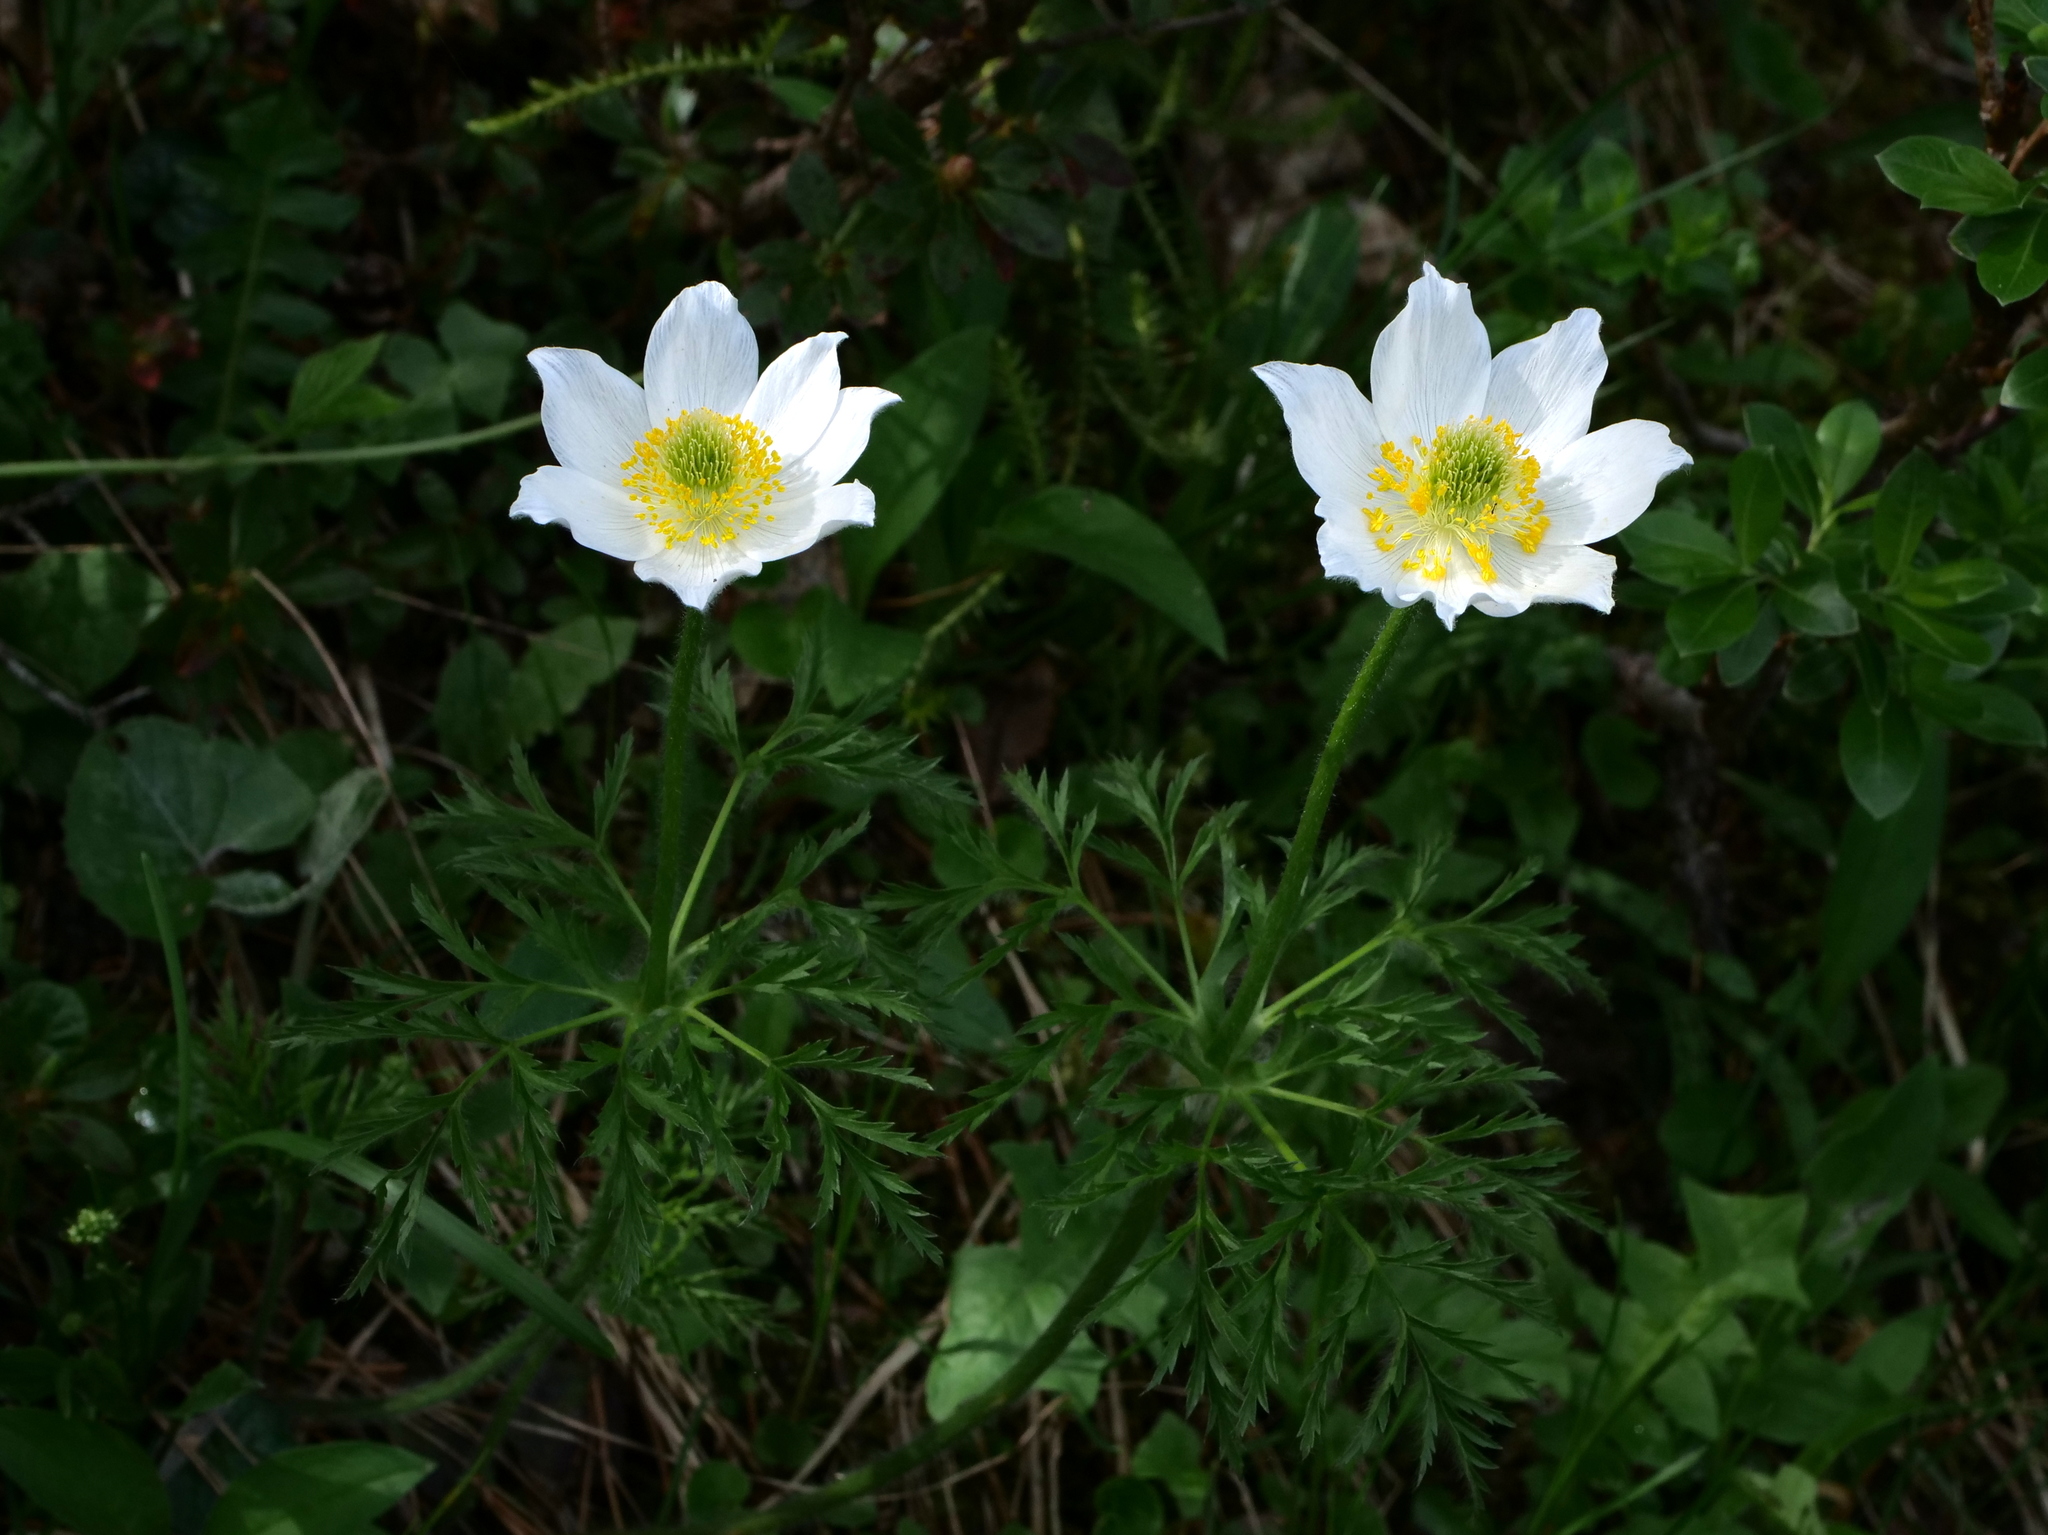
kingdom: Plantae
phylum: Tracheophyta
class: Magnoliopsida
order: Ranunculales
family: Ranunculaceae
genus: Pulsatilla
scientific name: Pulsatilla alpina
